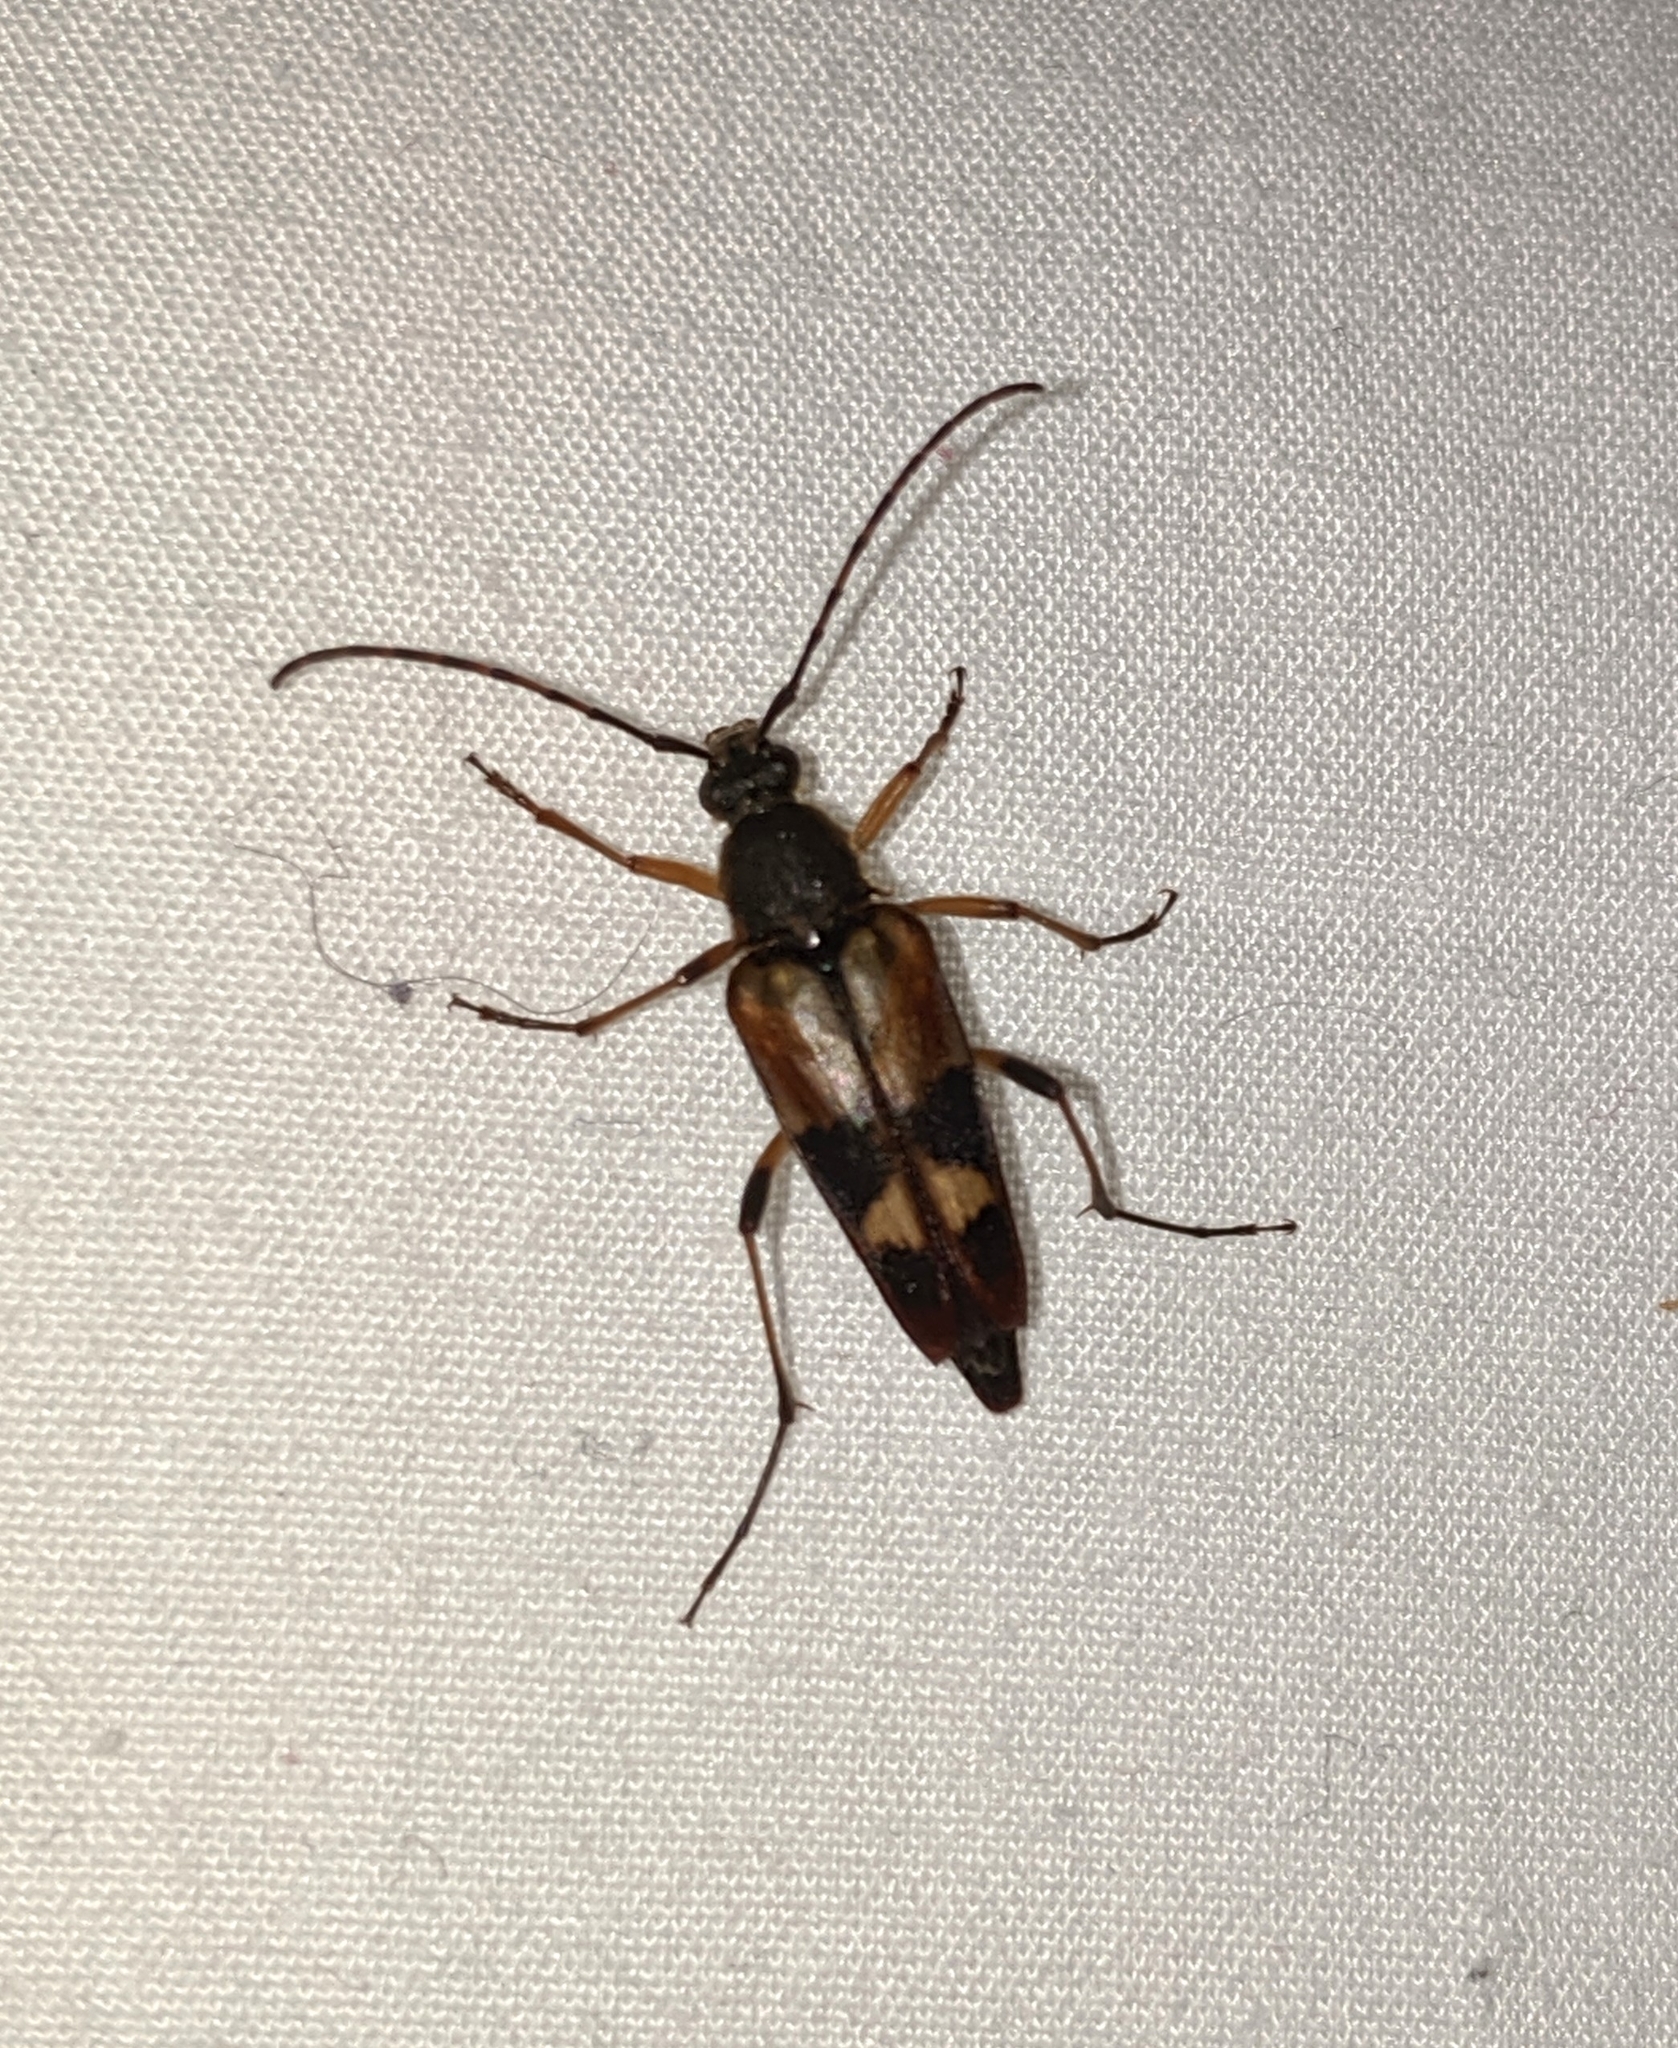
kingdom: Animalia
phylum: Arthropoda
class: Insecta
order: Coleoptera
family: Cerambycidae
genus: Etorofus
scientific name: Etorofus obliteratus
